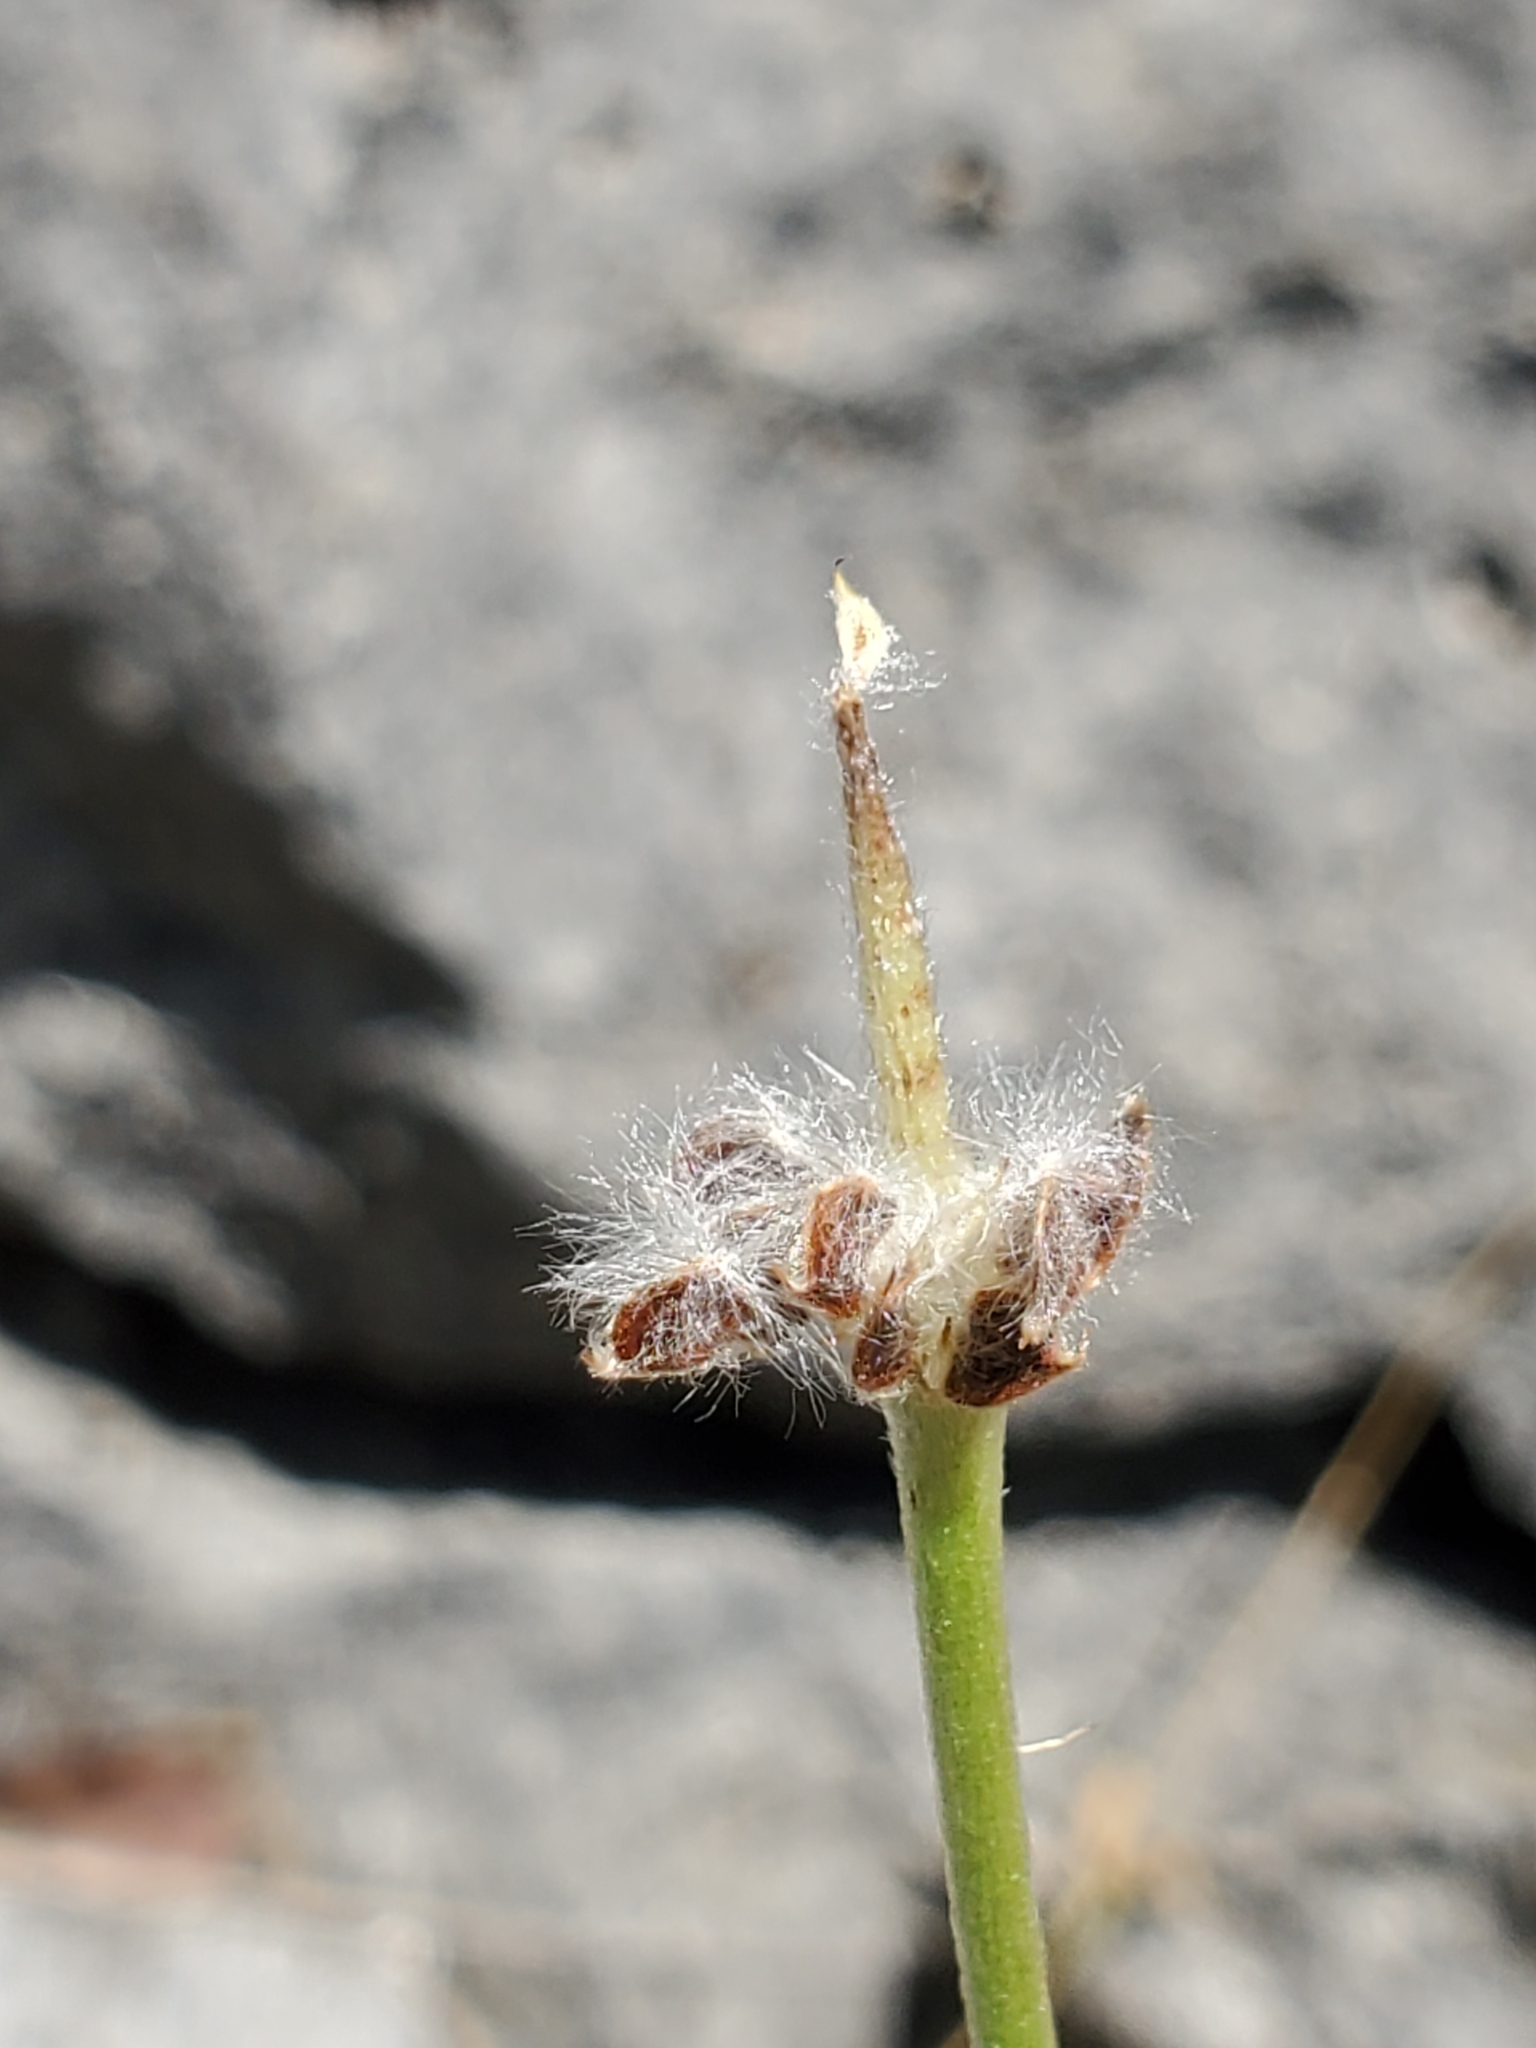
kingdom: Plantae
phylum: Tracheophyta
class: Magnoliopsida
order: Ranunculales
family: Ranunculaceae
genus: Anemone
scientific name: Anemone edwardsiana
